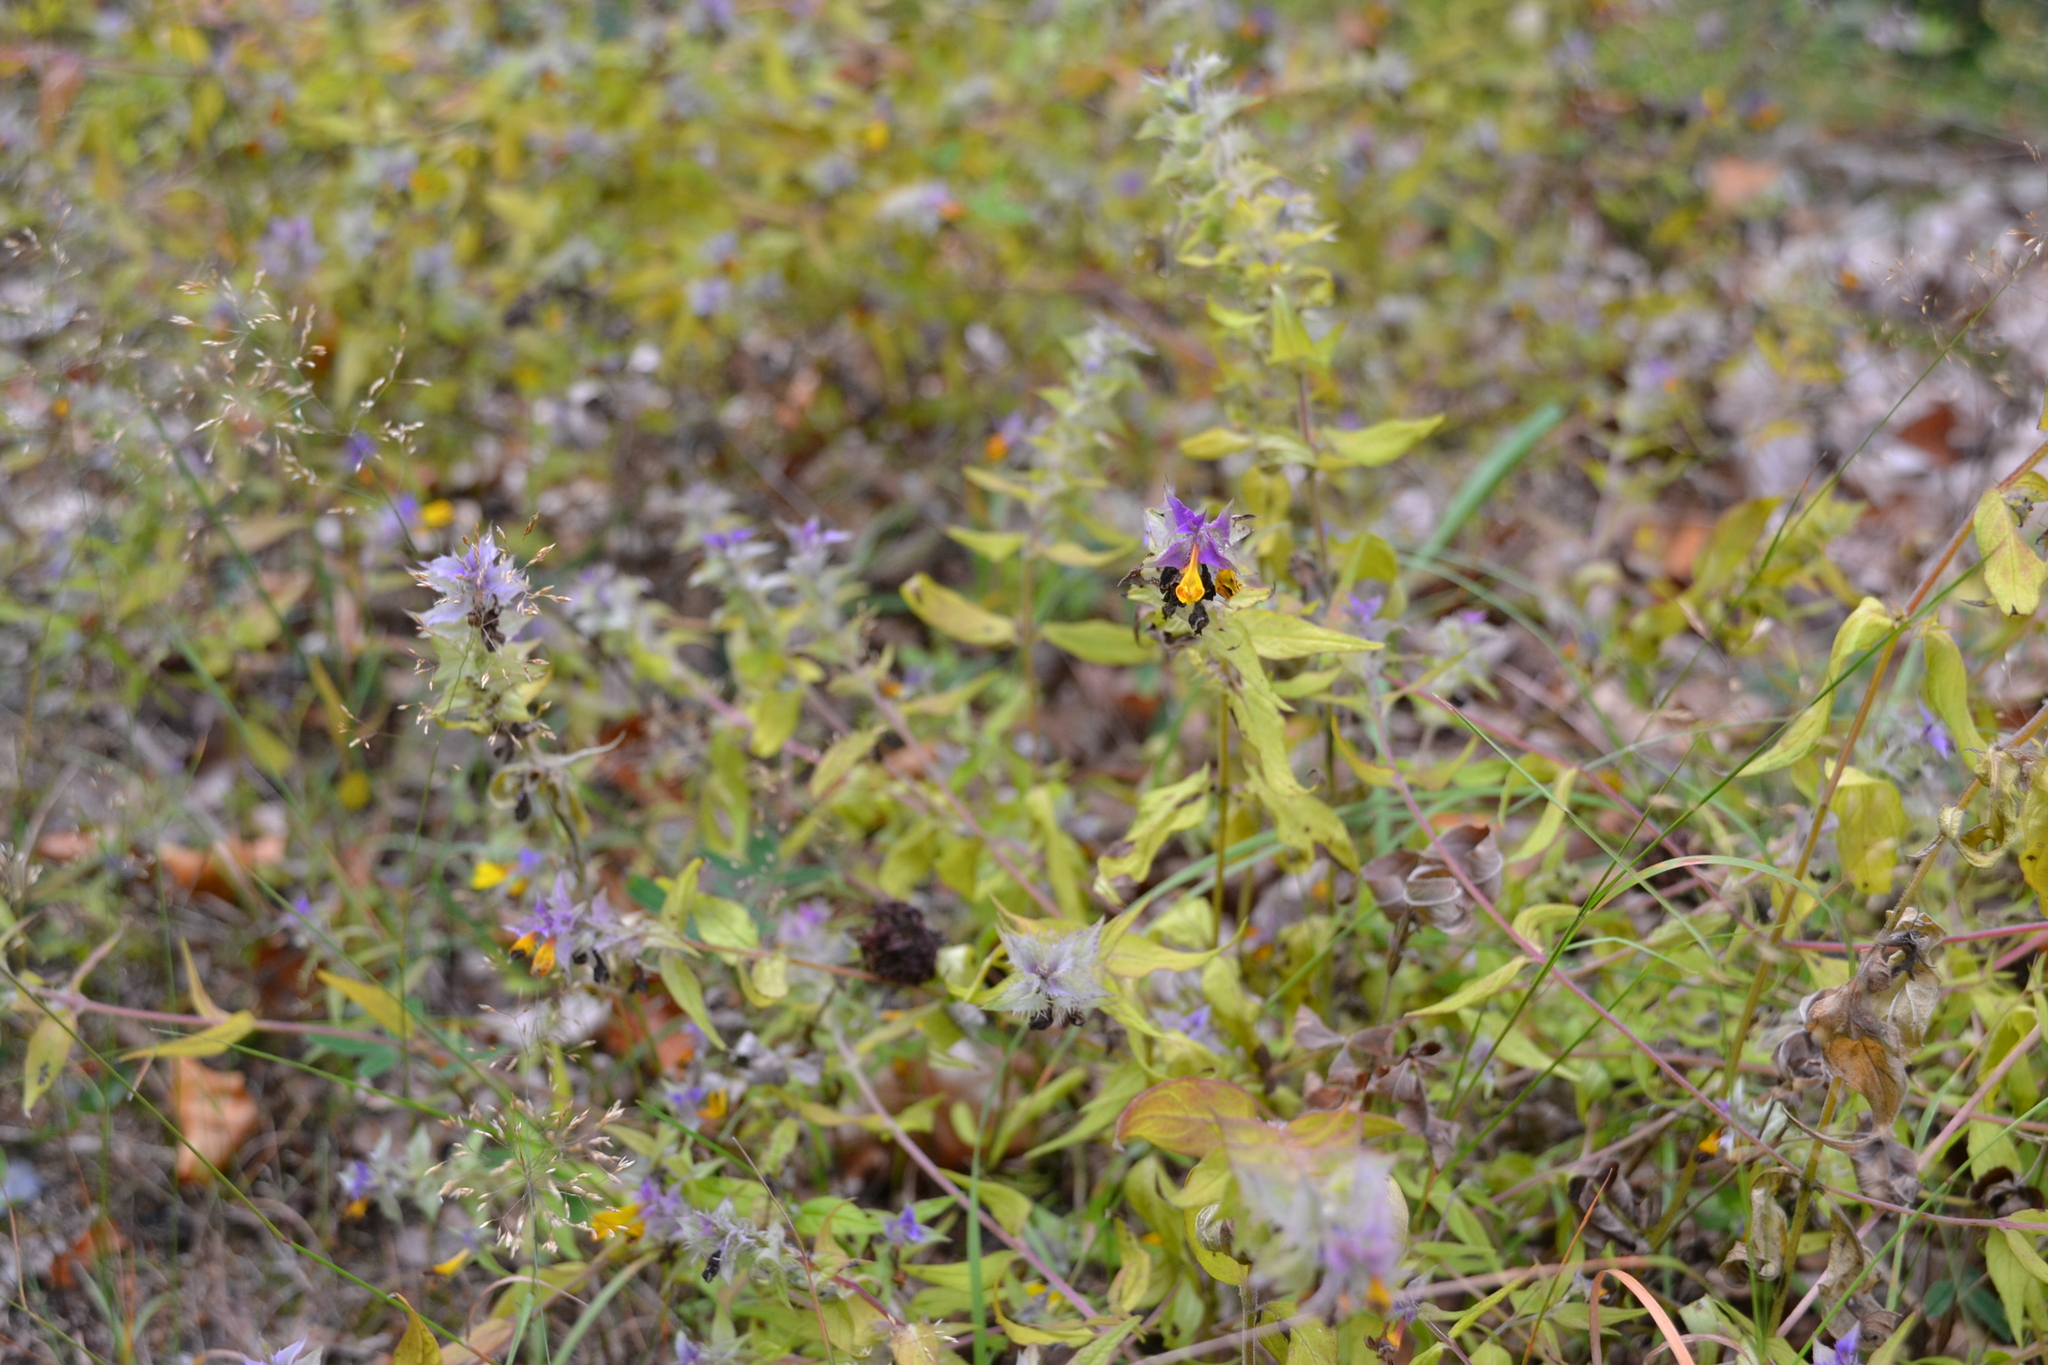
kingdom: Plantae
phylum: Tracheophyta
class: Magnoliopsida
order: Lamiales
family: Orobanchaceae
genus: Melampyrum
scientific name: Melampyrum nemorosum
